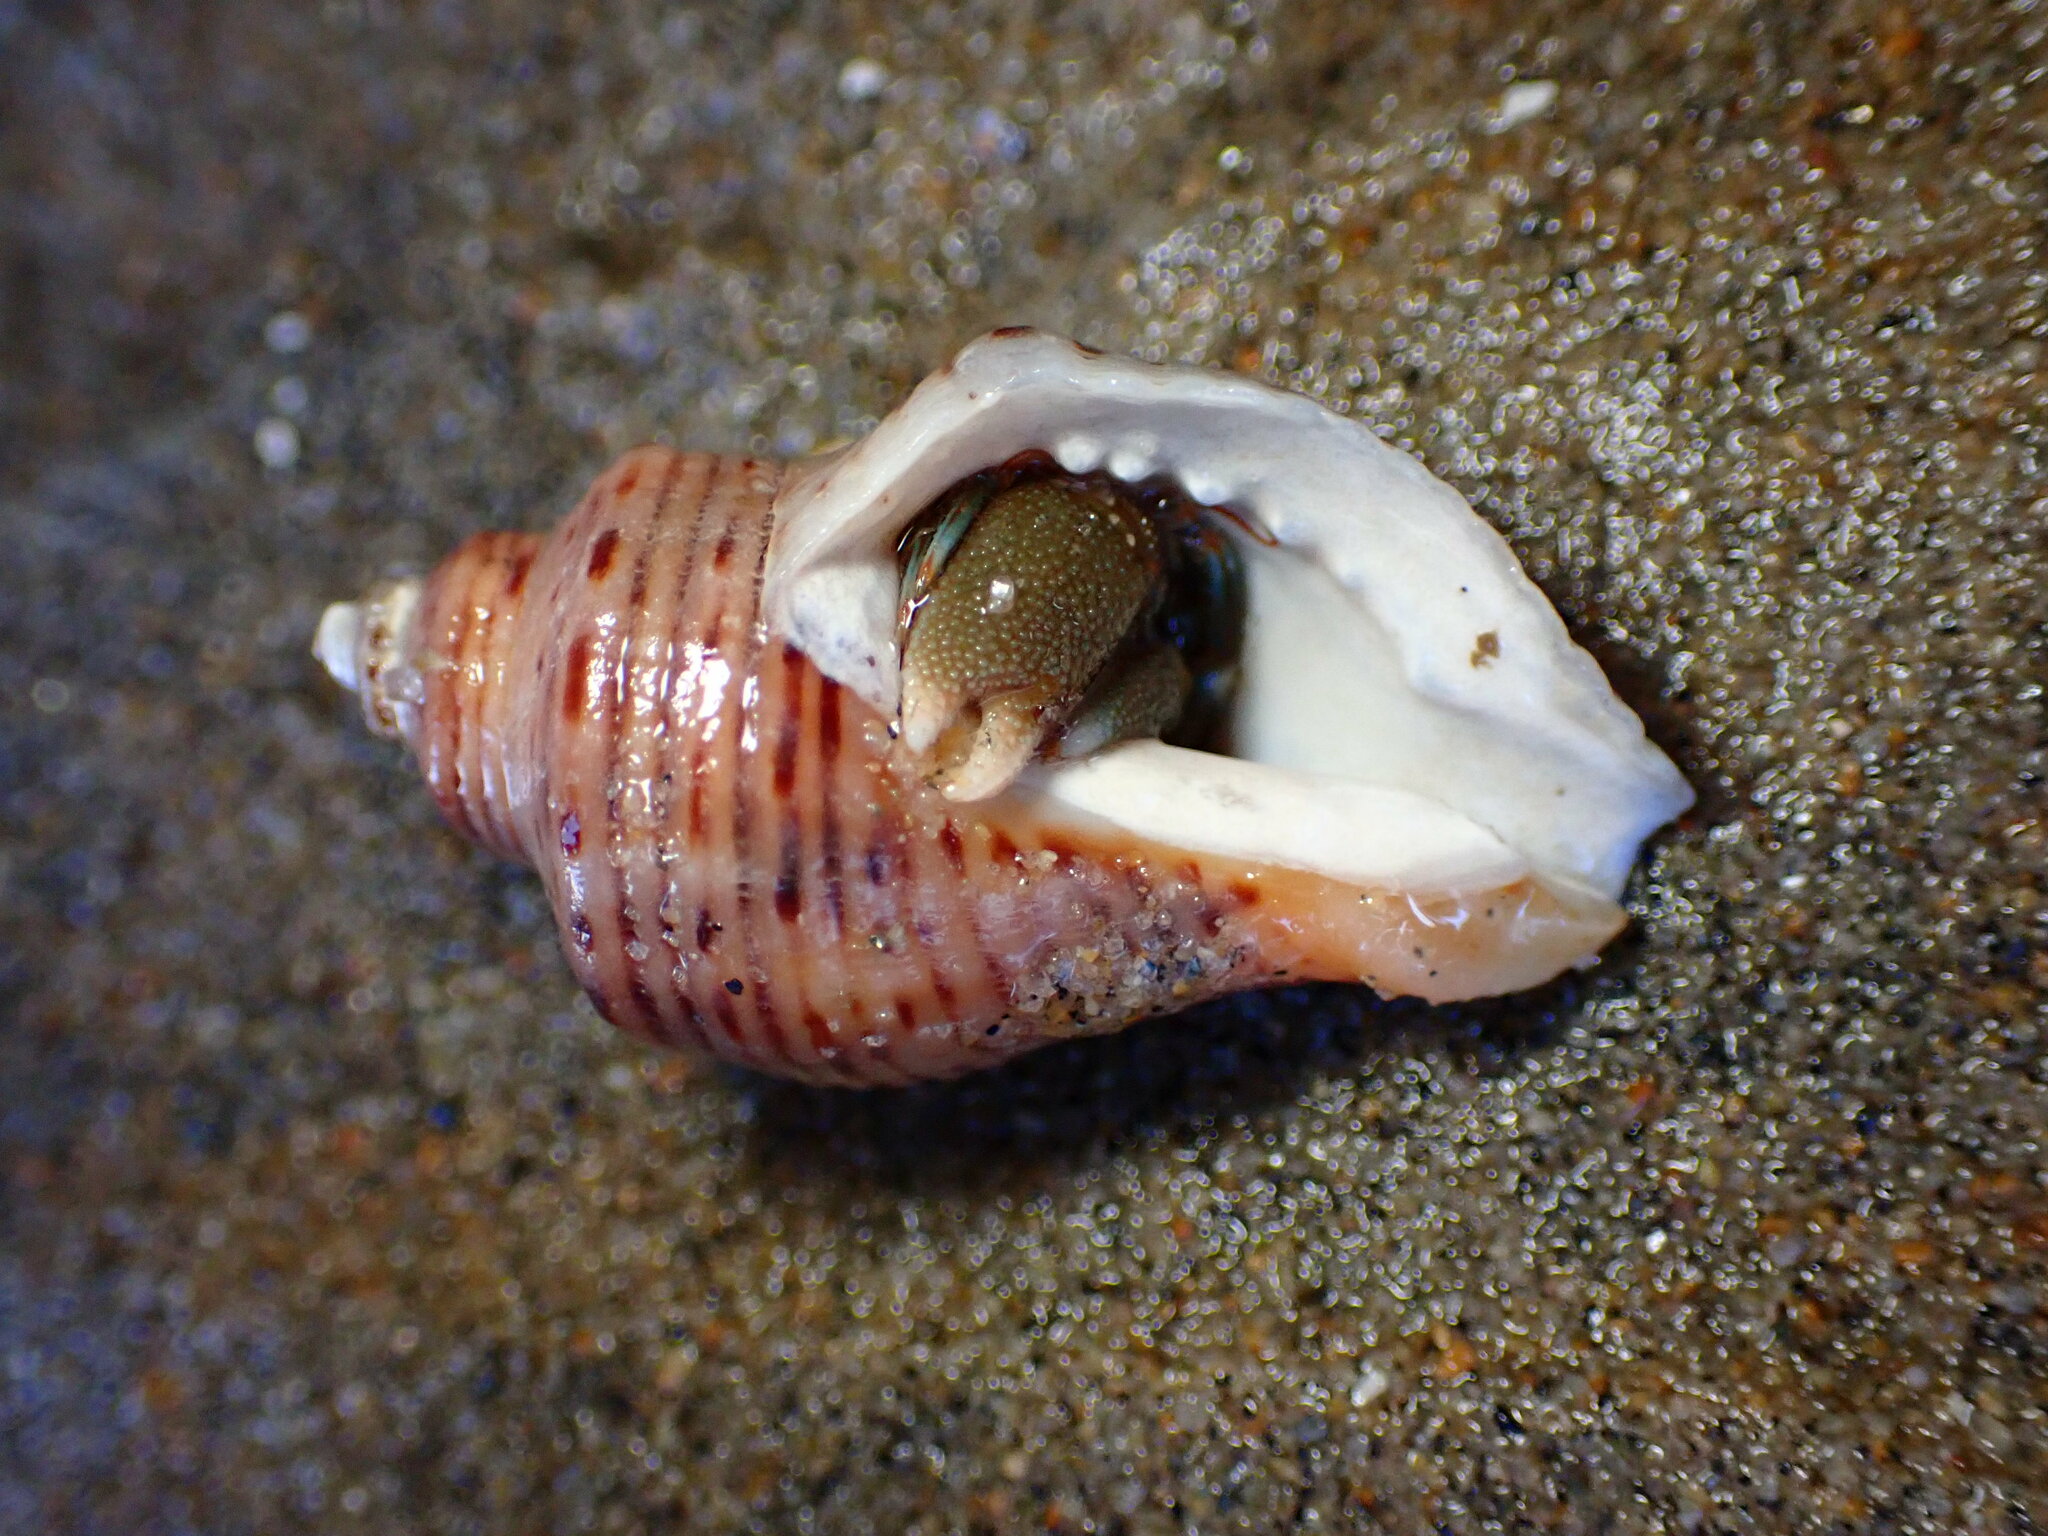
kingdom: Animalia
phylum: Arthropoda
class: Malacostraca
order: Decapoda
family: Paguridae
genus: Pagurus
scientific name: Pagurus samuelis
